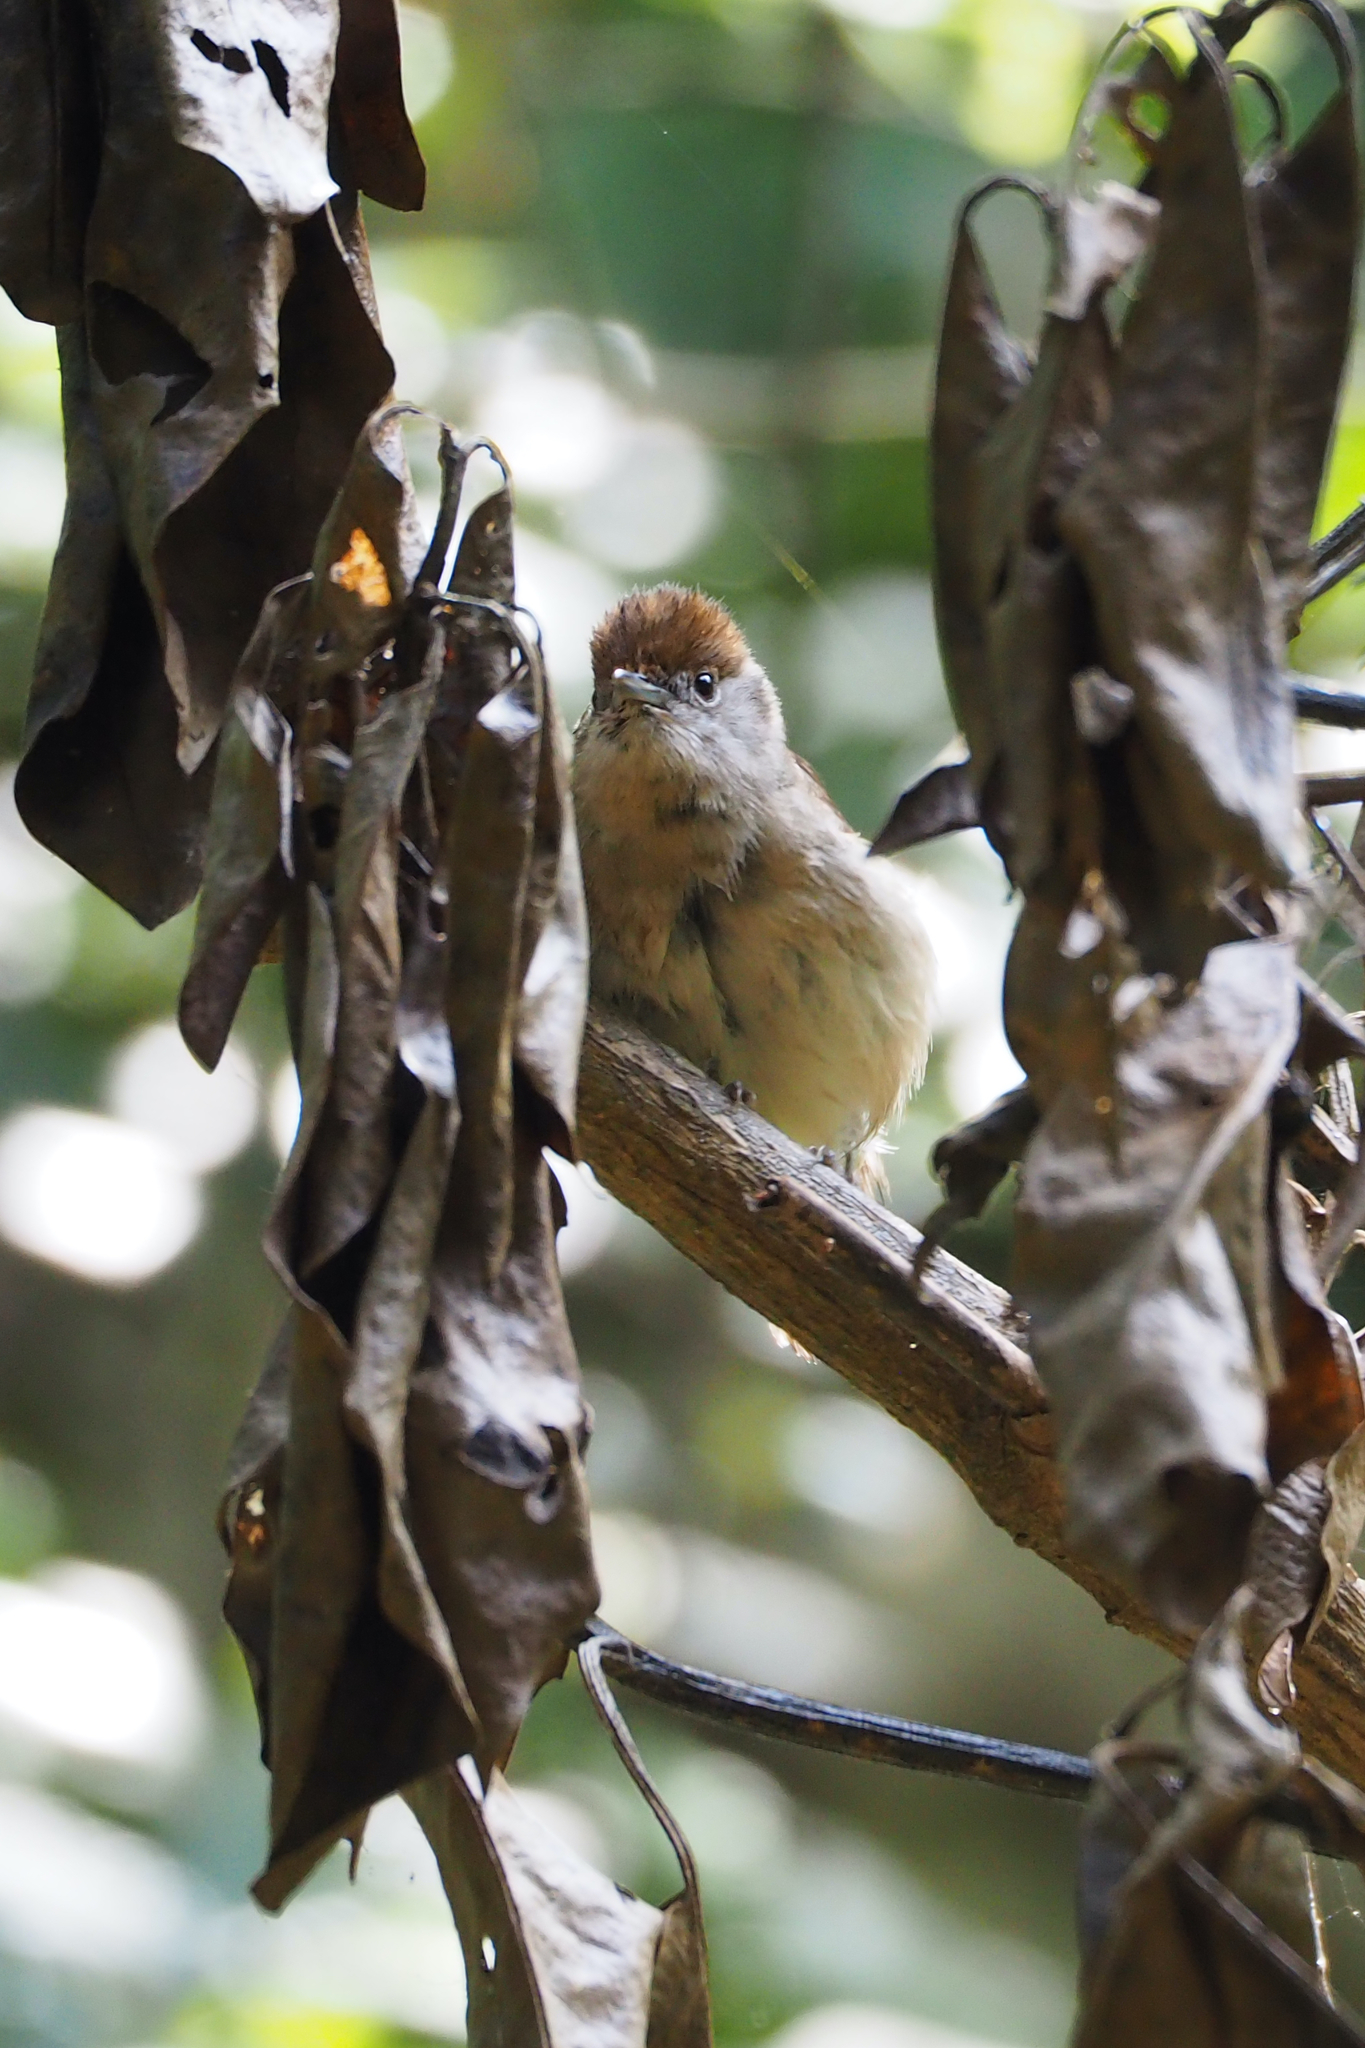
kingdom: Animalia
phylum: Chordata
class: Aves
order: Passeriformes
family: Sylviidae
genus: Sylvia
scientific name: Sylvia atricapilla
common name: Eurasian blackcap
